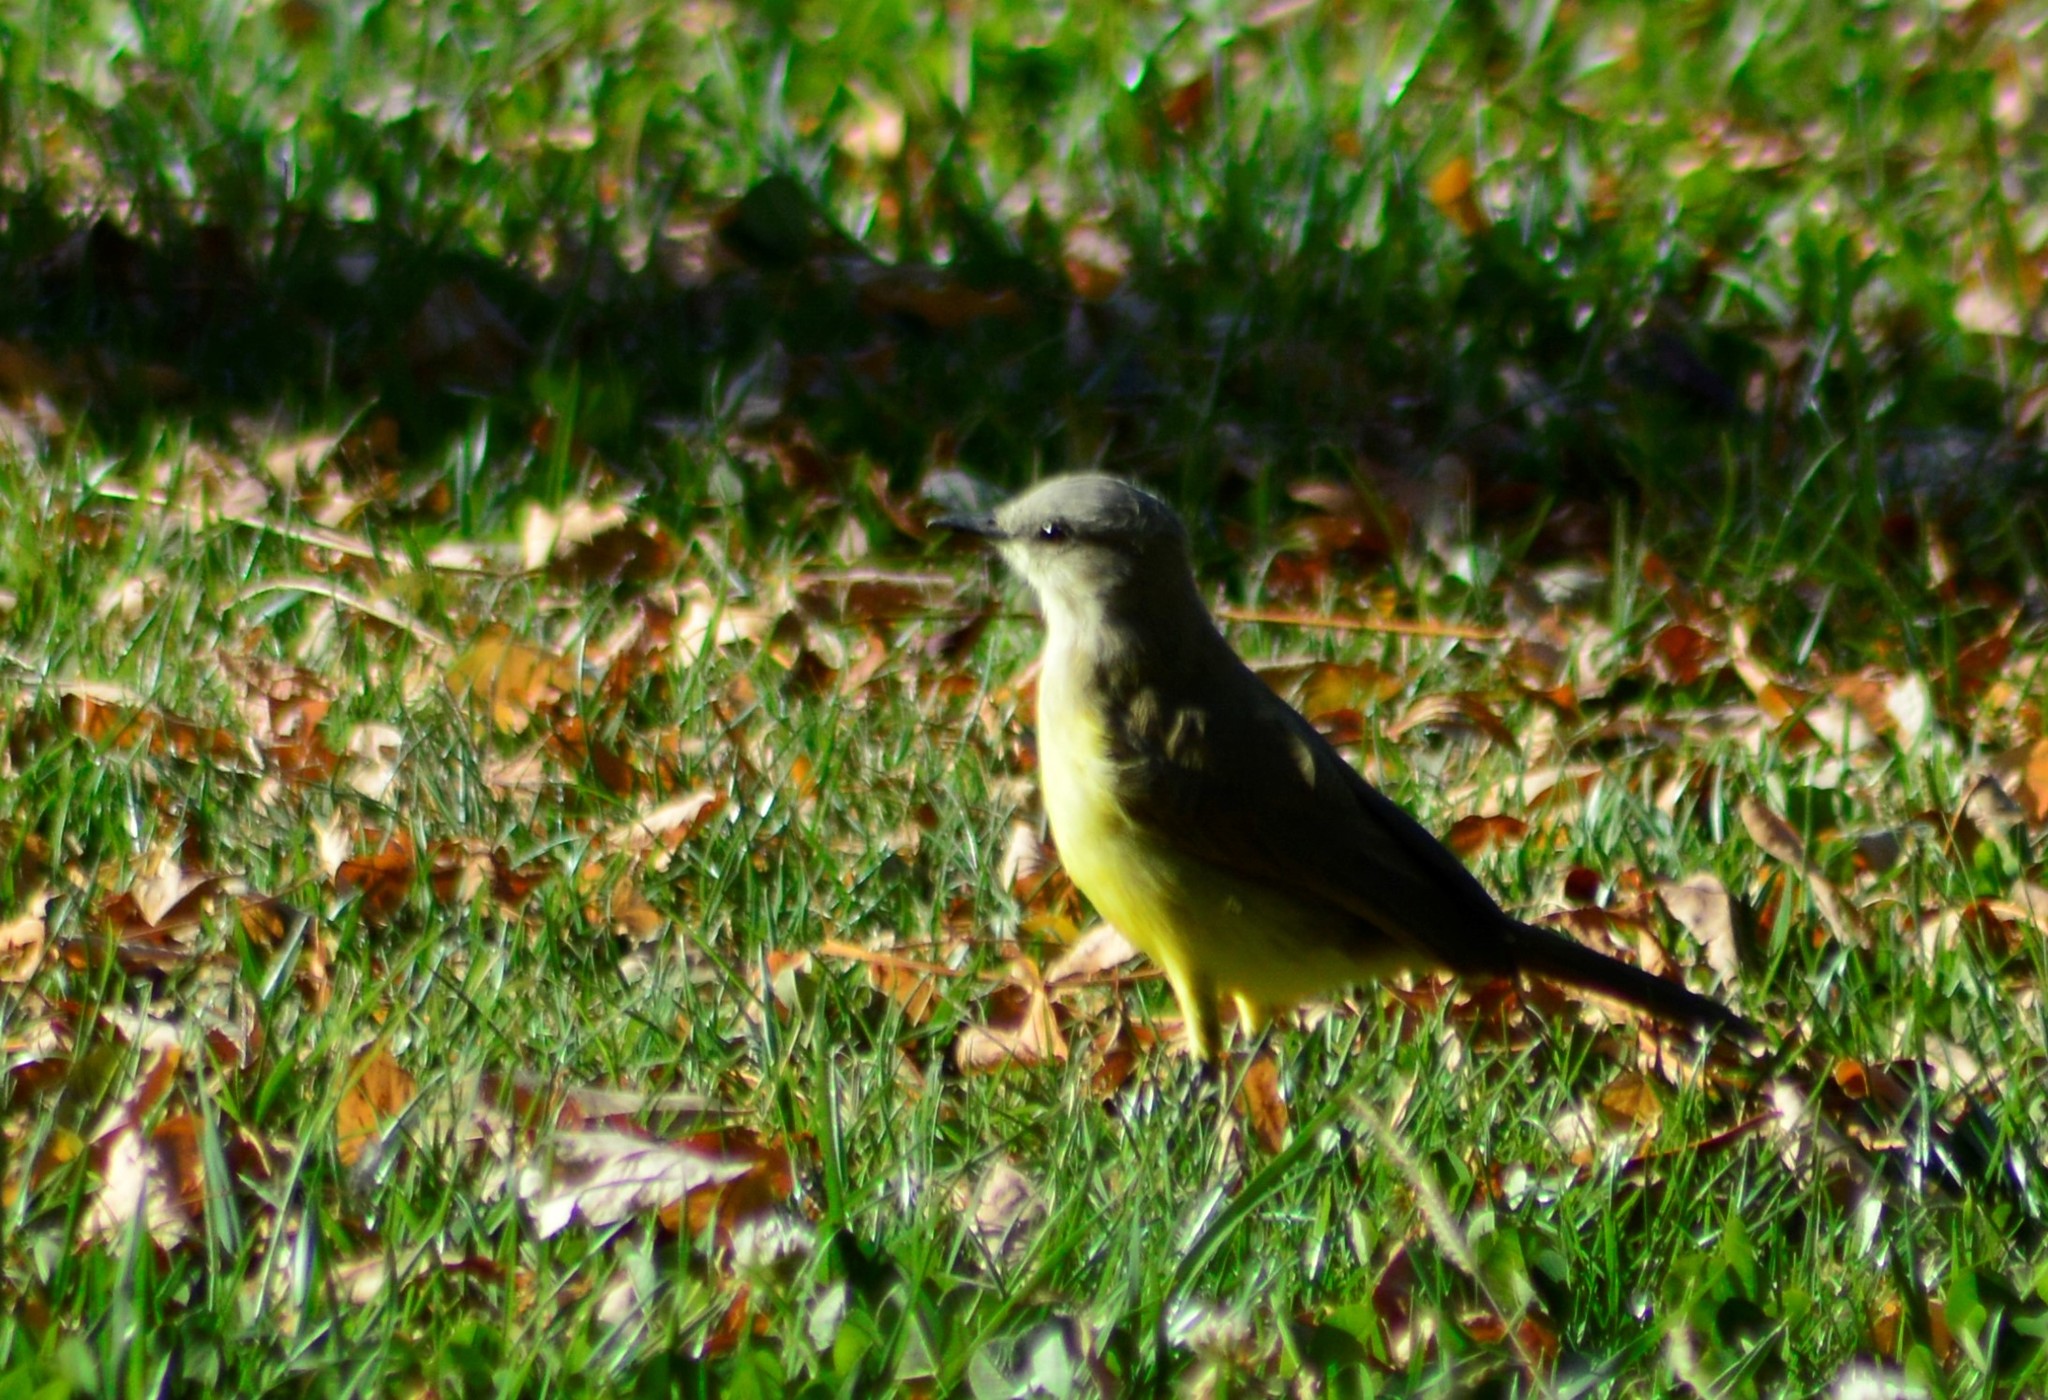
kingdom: Animalia
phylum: Chordata
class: Aves
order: Passeriformes
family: Tyrannidae
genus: Machetornis
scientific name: Machetornis rixosa
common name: Cattle tyrant
